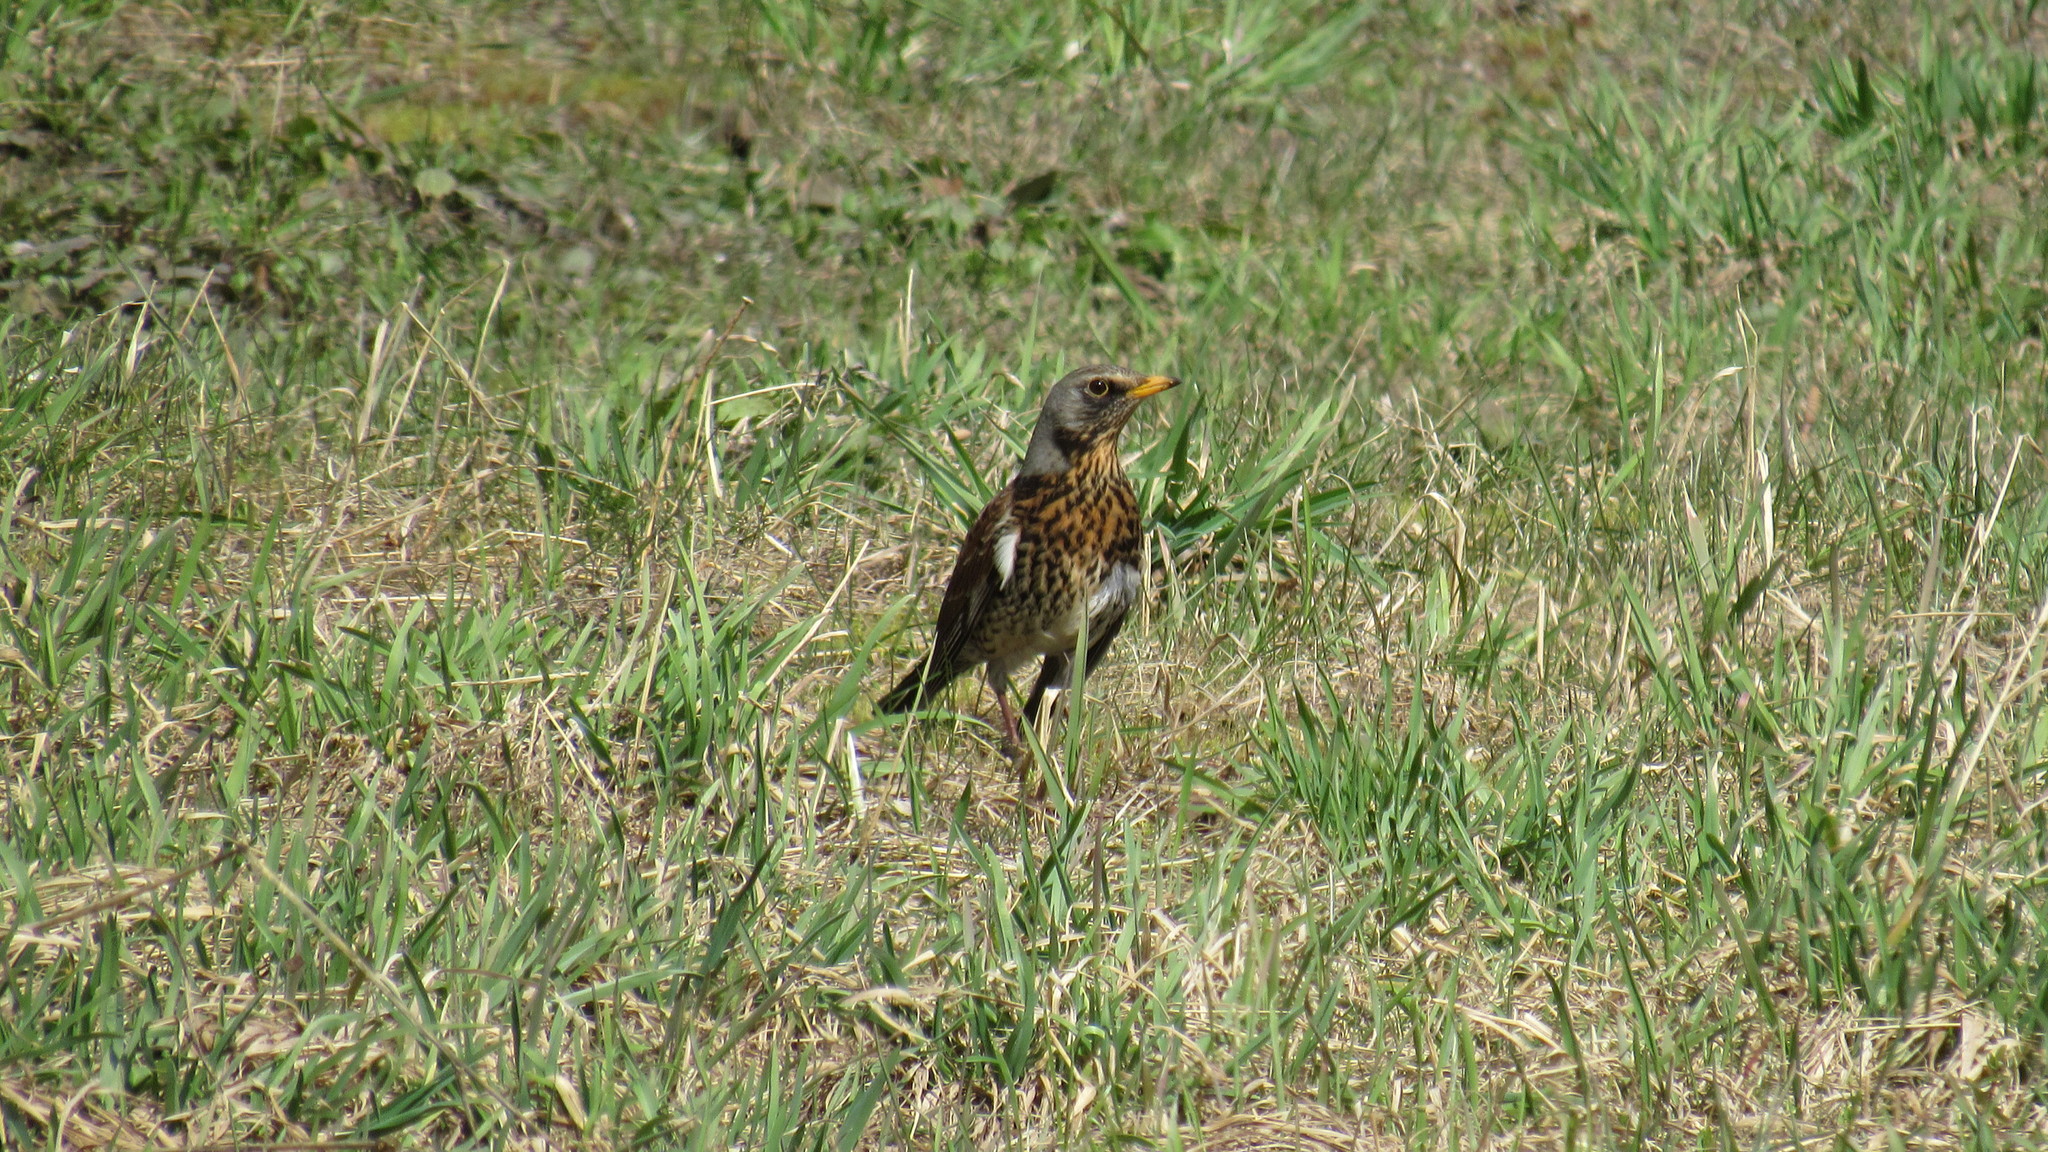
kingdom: Animalia
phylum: Chordata
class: Aves
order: Passeriformes
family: Turdidae
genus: Turdus
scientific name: Turdus pilaris
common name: Fieldfare
